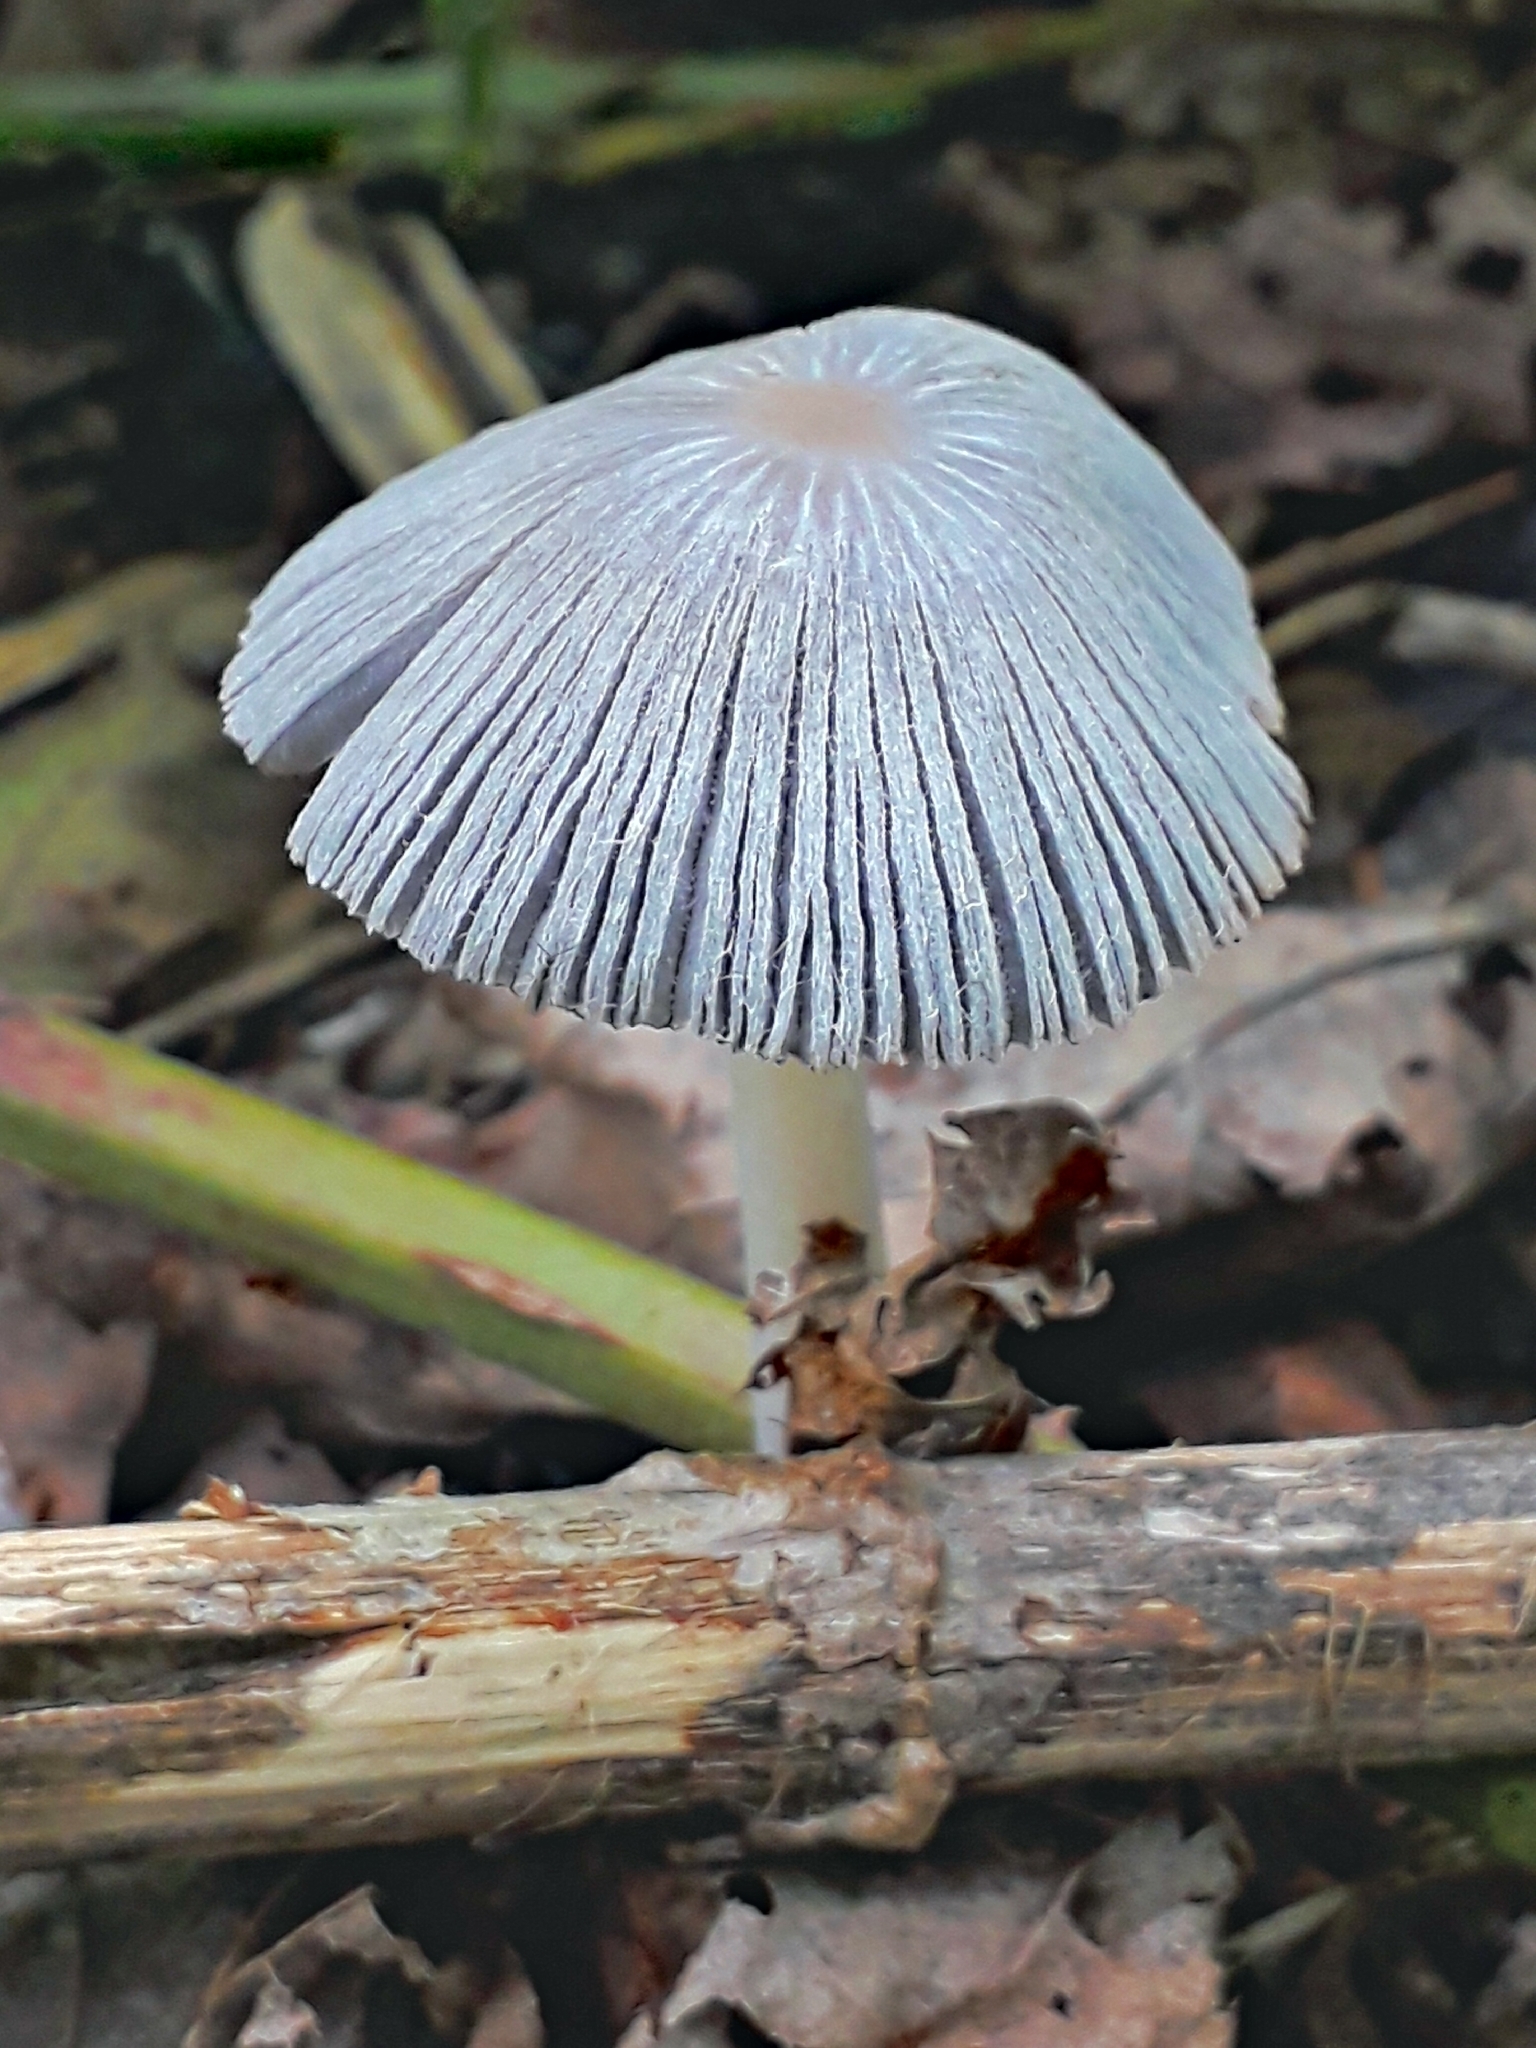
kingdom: Fungi
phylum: Basidiomycota
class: Agaricomycetes
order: Agaricales
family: Psathyrellaceae
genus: Coprinopsis
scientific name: Coprinopsis alopecia
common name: Distinguished inkcap
